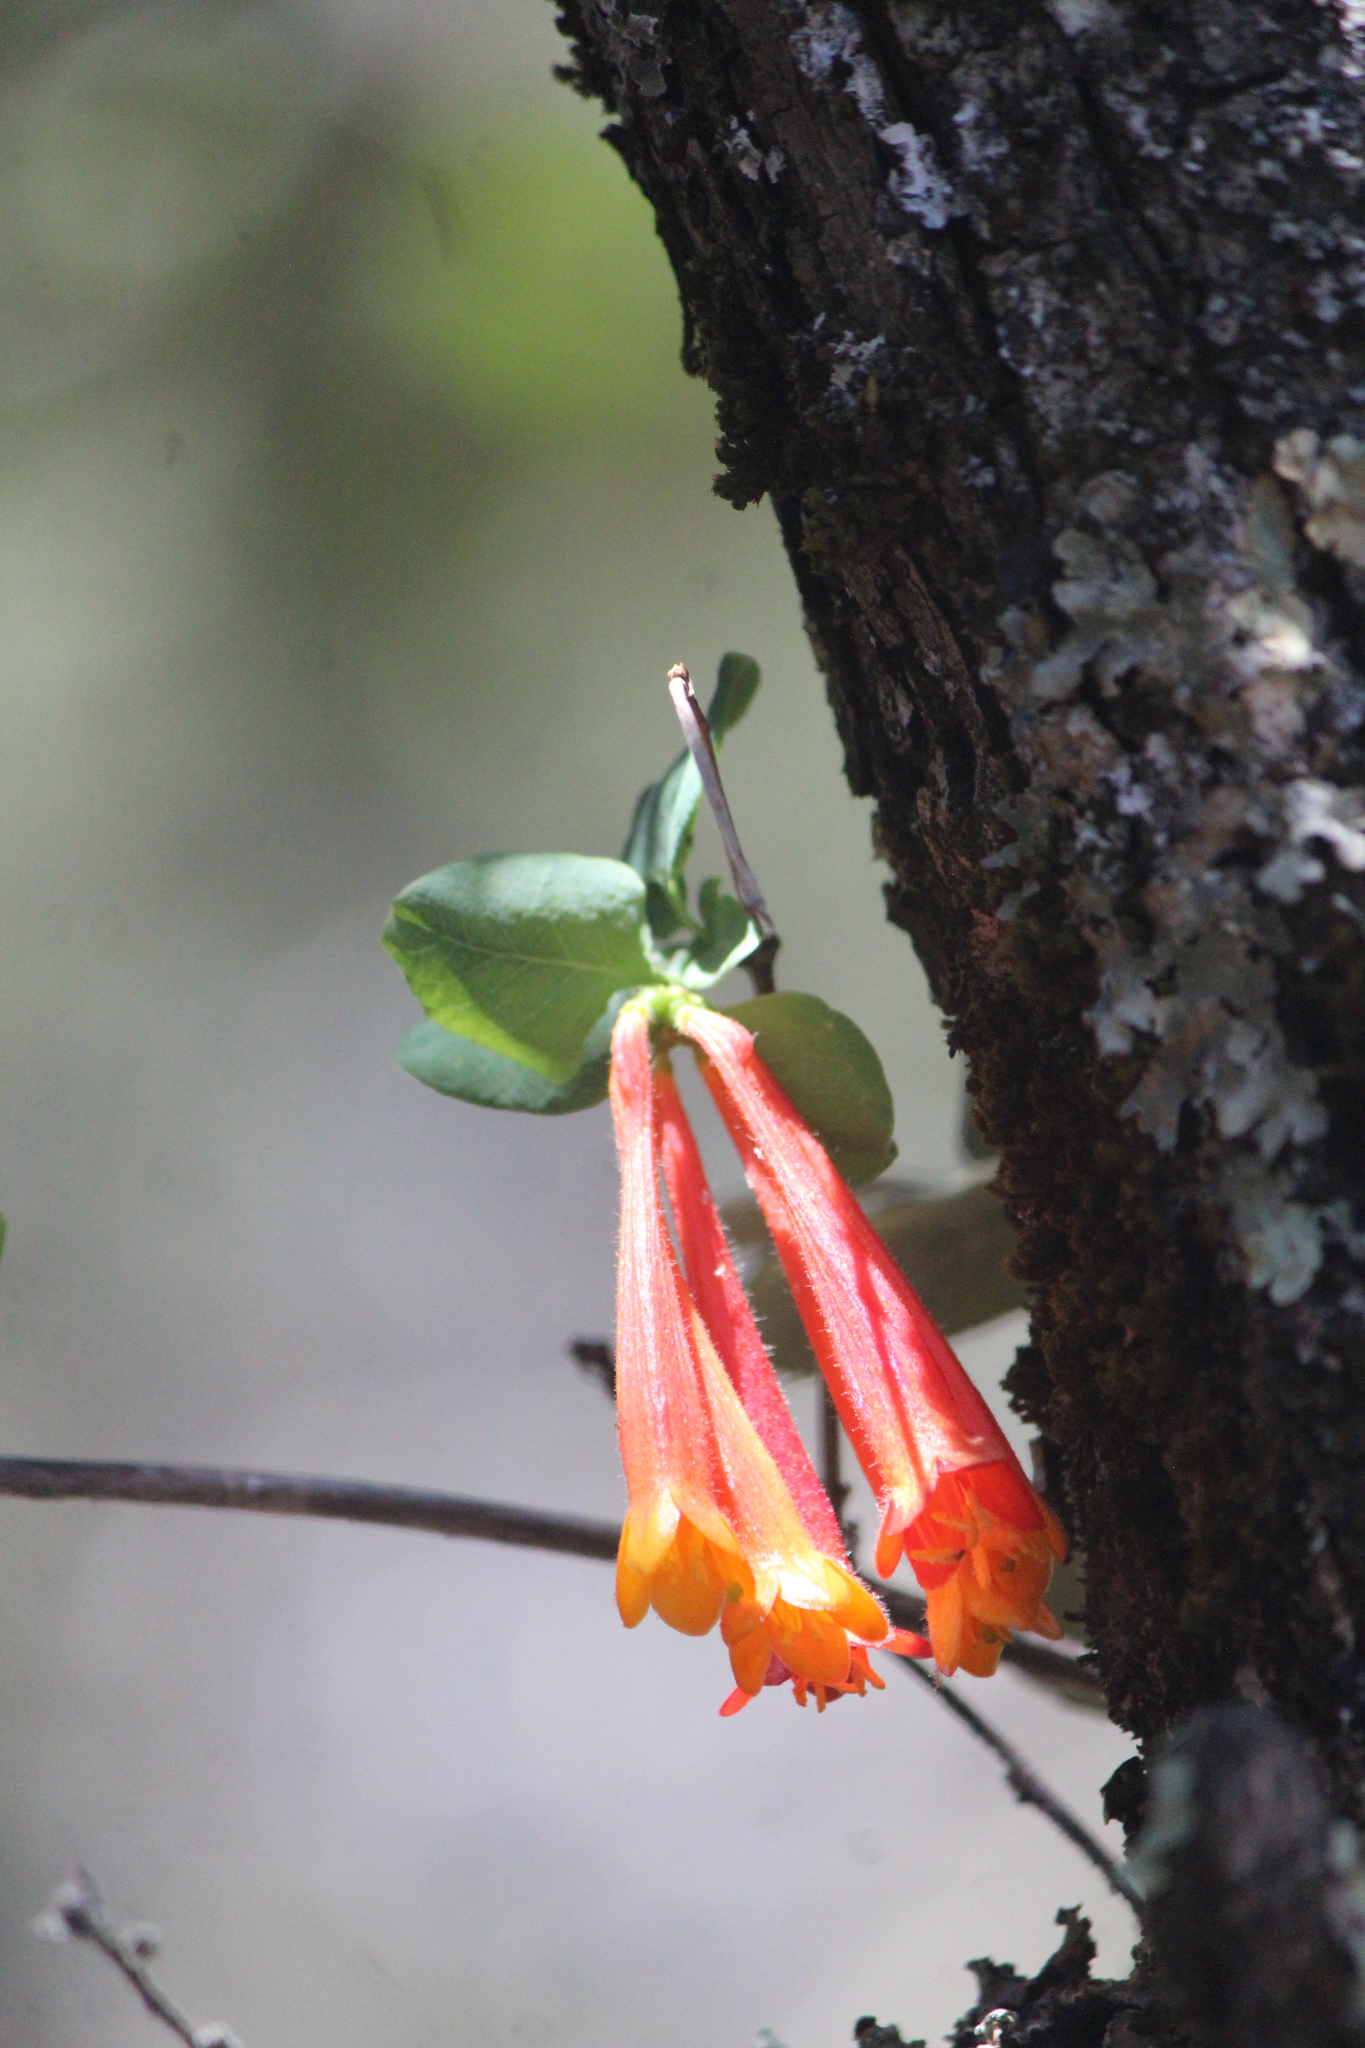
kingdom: Plantae
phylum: Tracheophyta
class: Magnoliopsida
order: Dipsacales
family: Caprifoliaceae
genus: Lonicera
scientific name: Lonicera pilosa
